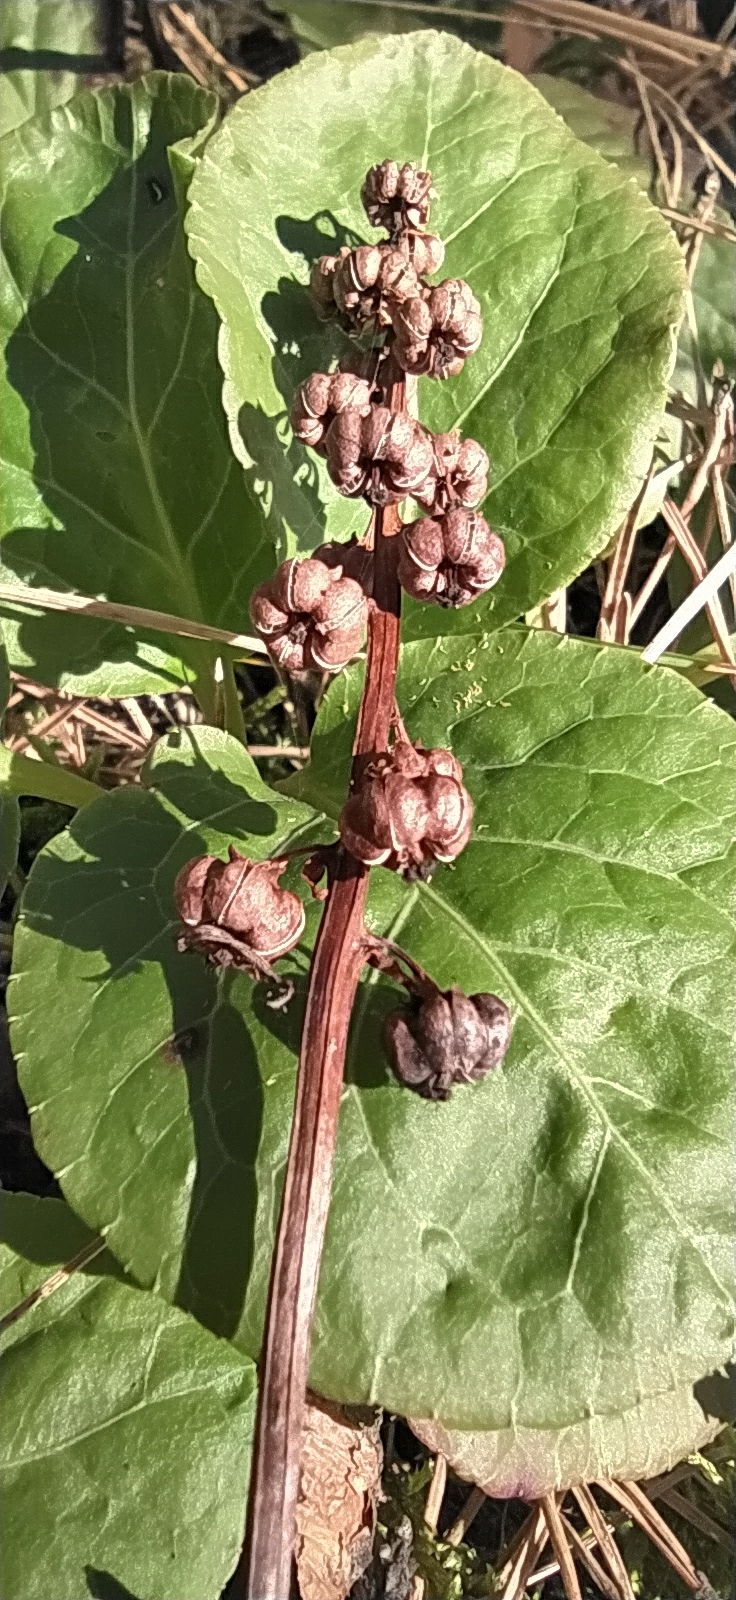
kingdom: Plantae
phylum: Tracheophyta
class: Magnoliopsida
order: Ericales
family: Ericaceae
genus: Pyrola
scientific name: Pyrola minor
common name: Common wintergreen
